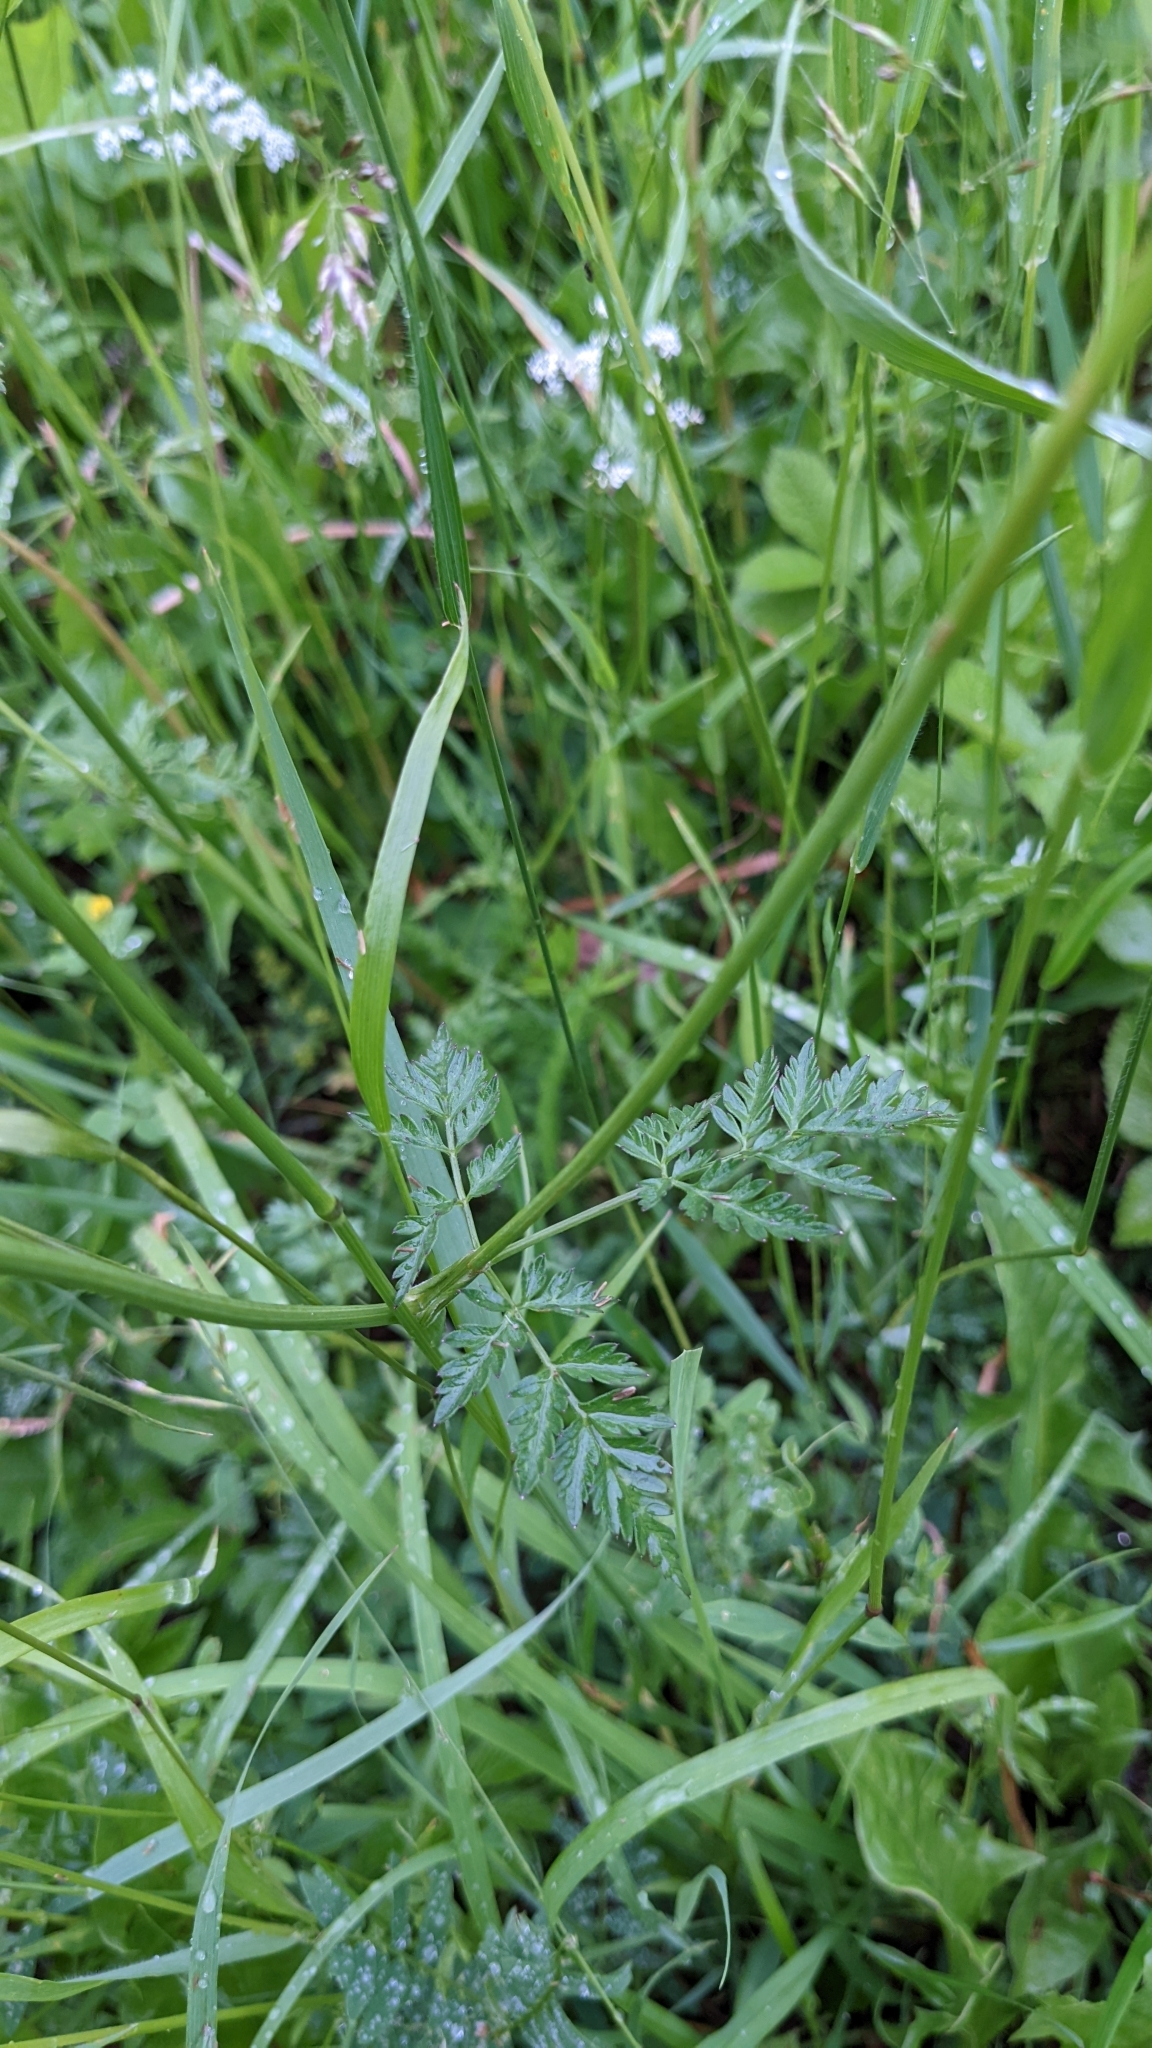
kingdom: Plantae
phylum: Tracheophyta
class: Magnoliopsida
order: Apiales
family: Apiaceae
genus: Anthriscus
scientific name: Anthriscus sylvestris
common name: Cow parsley
